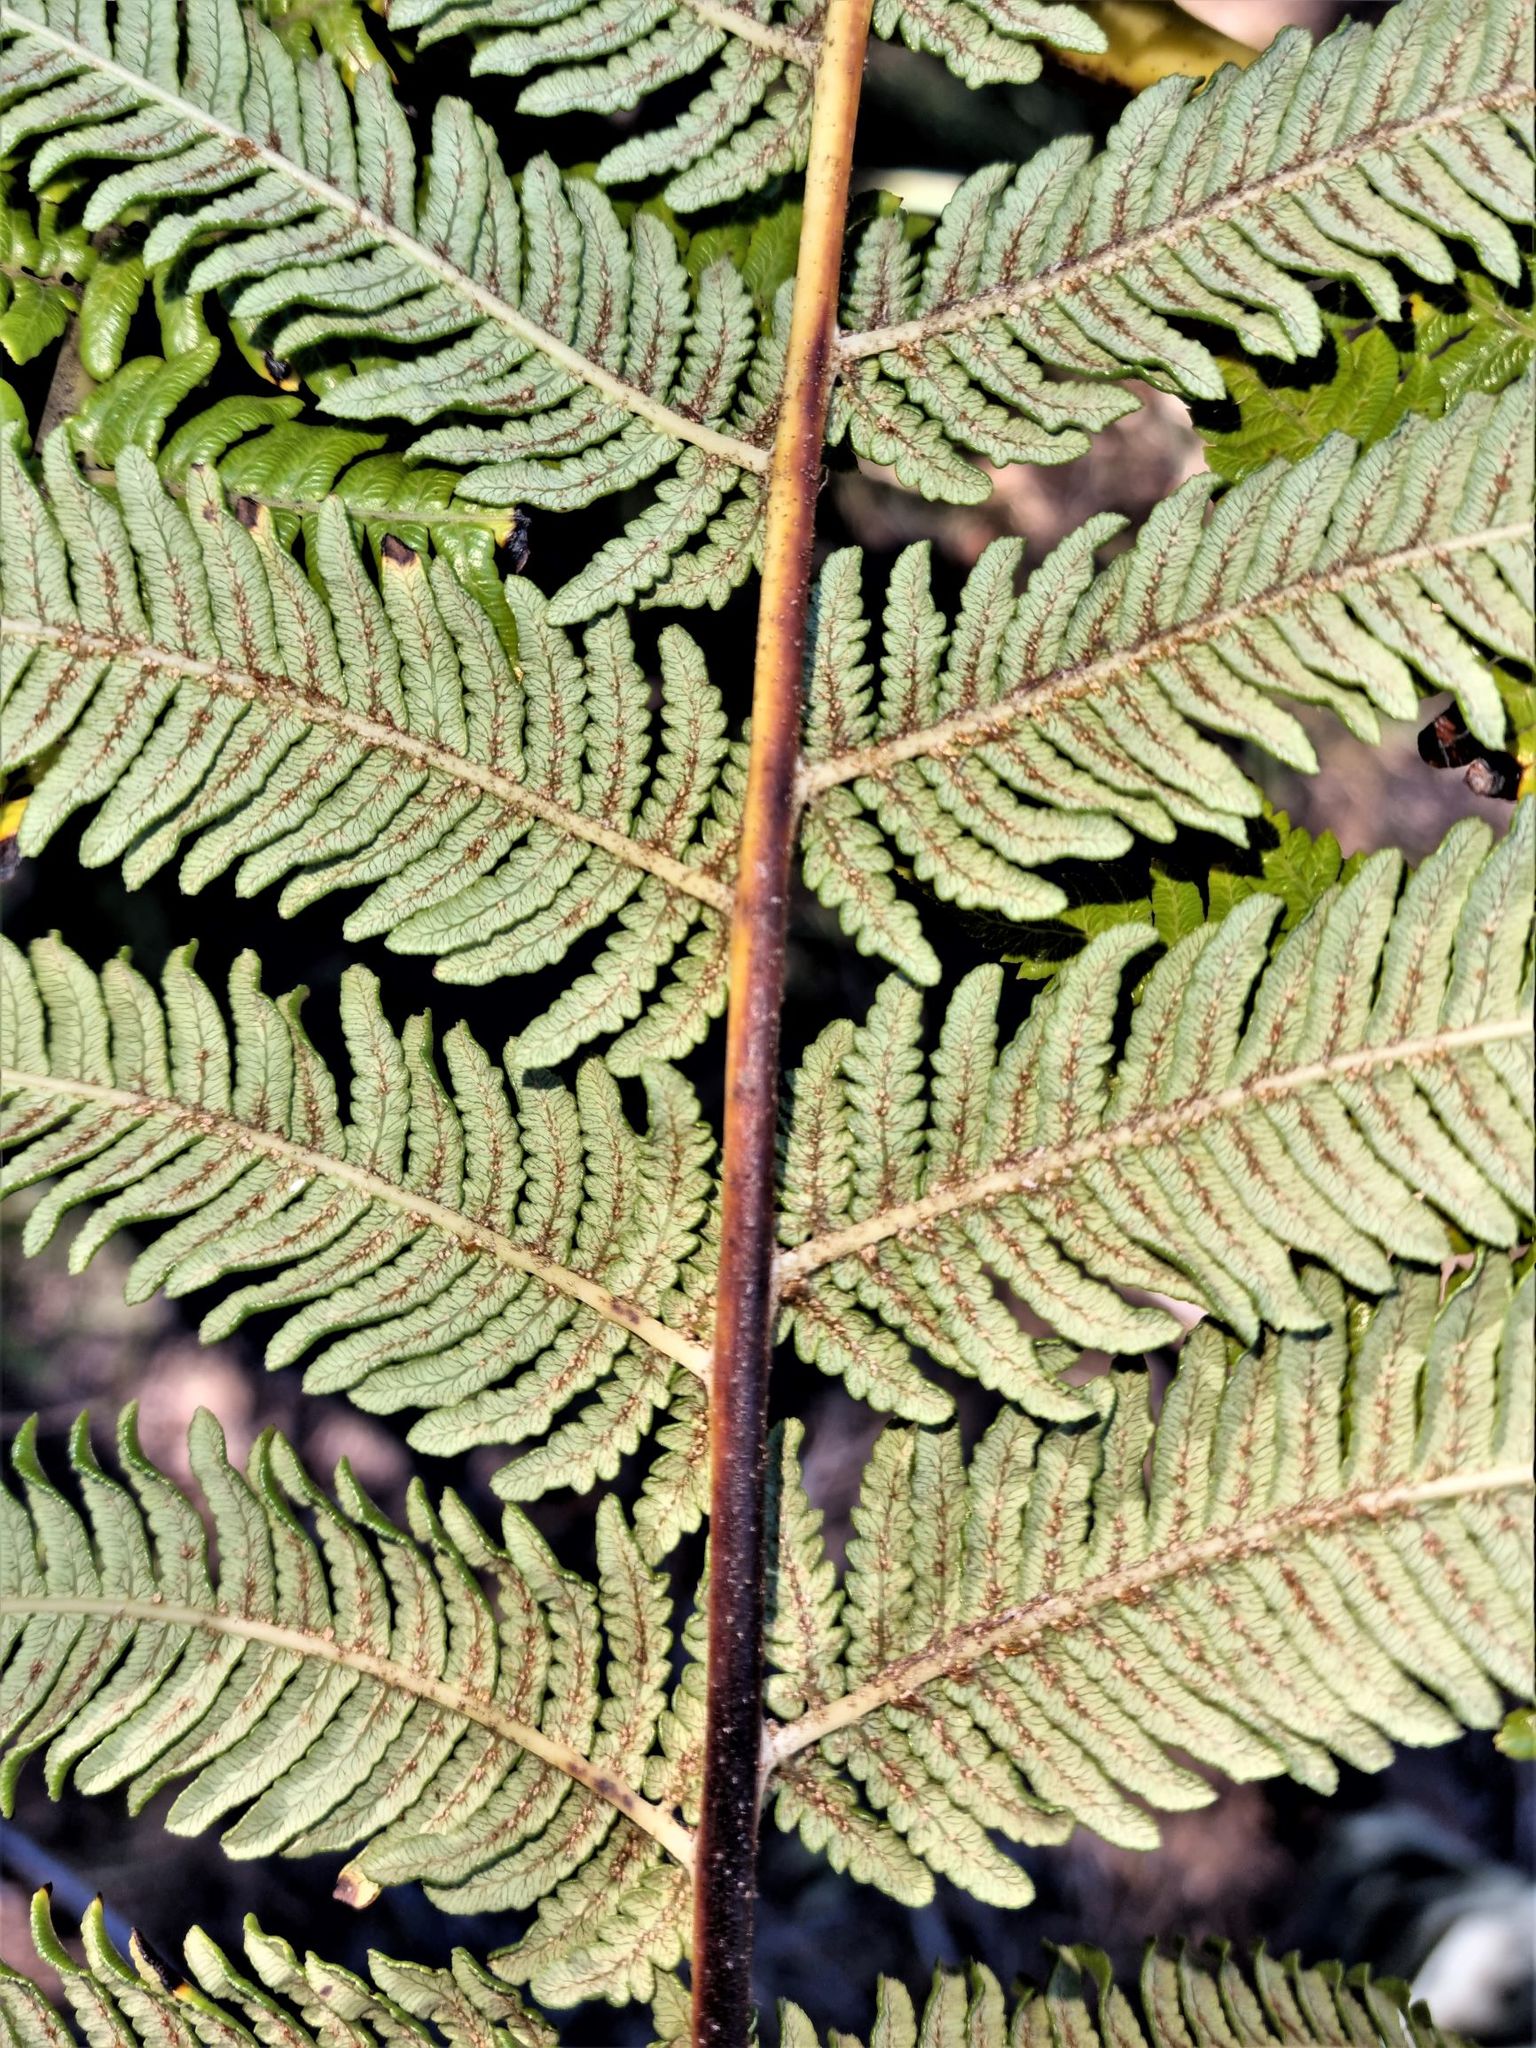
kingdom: Plantae
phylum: Tracheophyta
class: Polypodiopsida
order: Cyatheales
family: Cyatheaceae
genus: Sphaeropteris
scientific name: Sphaeropteris medullaris
